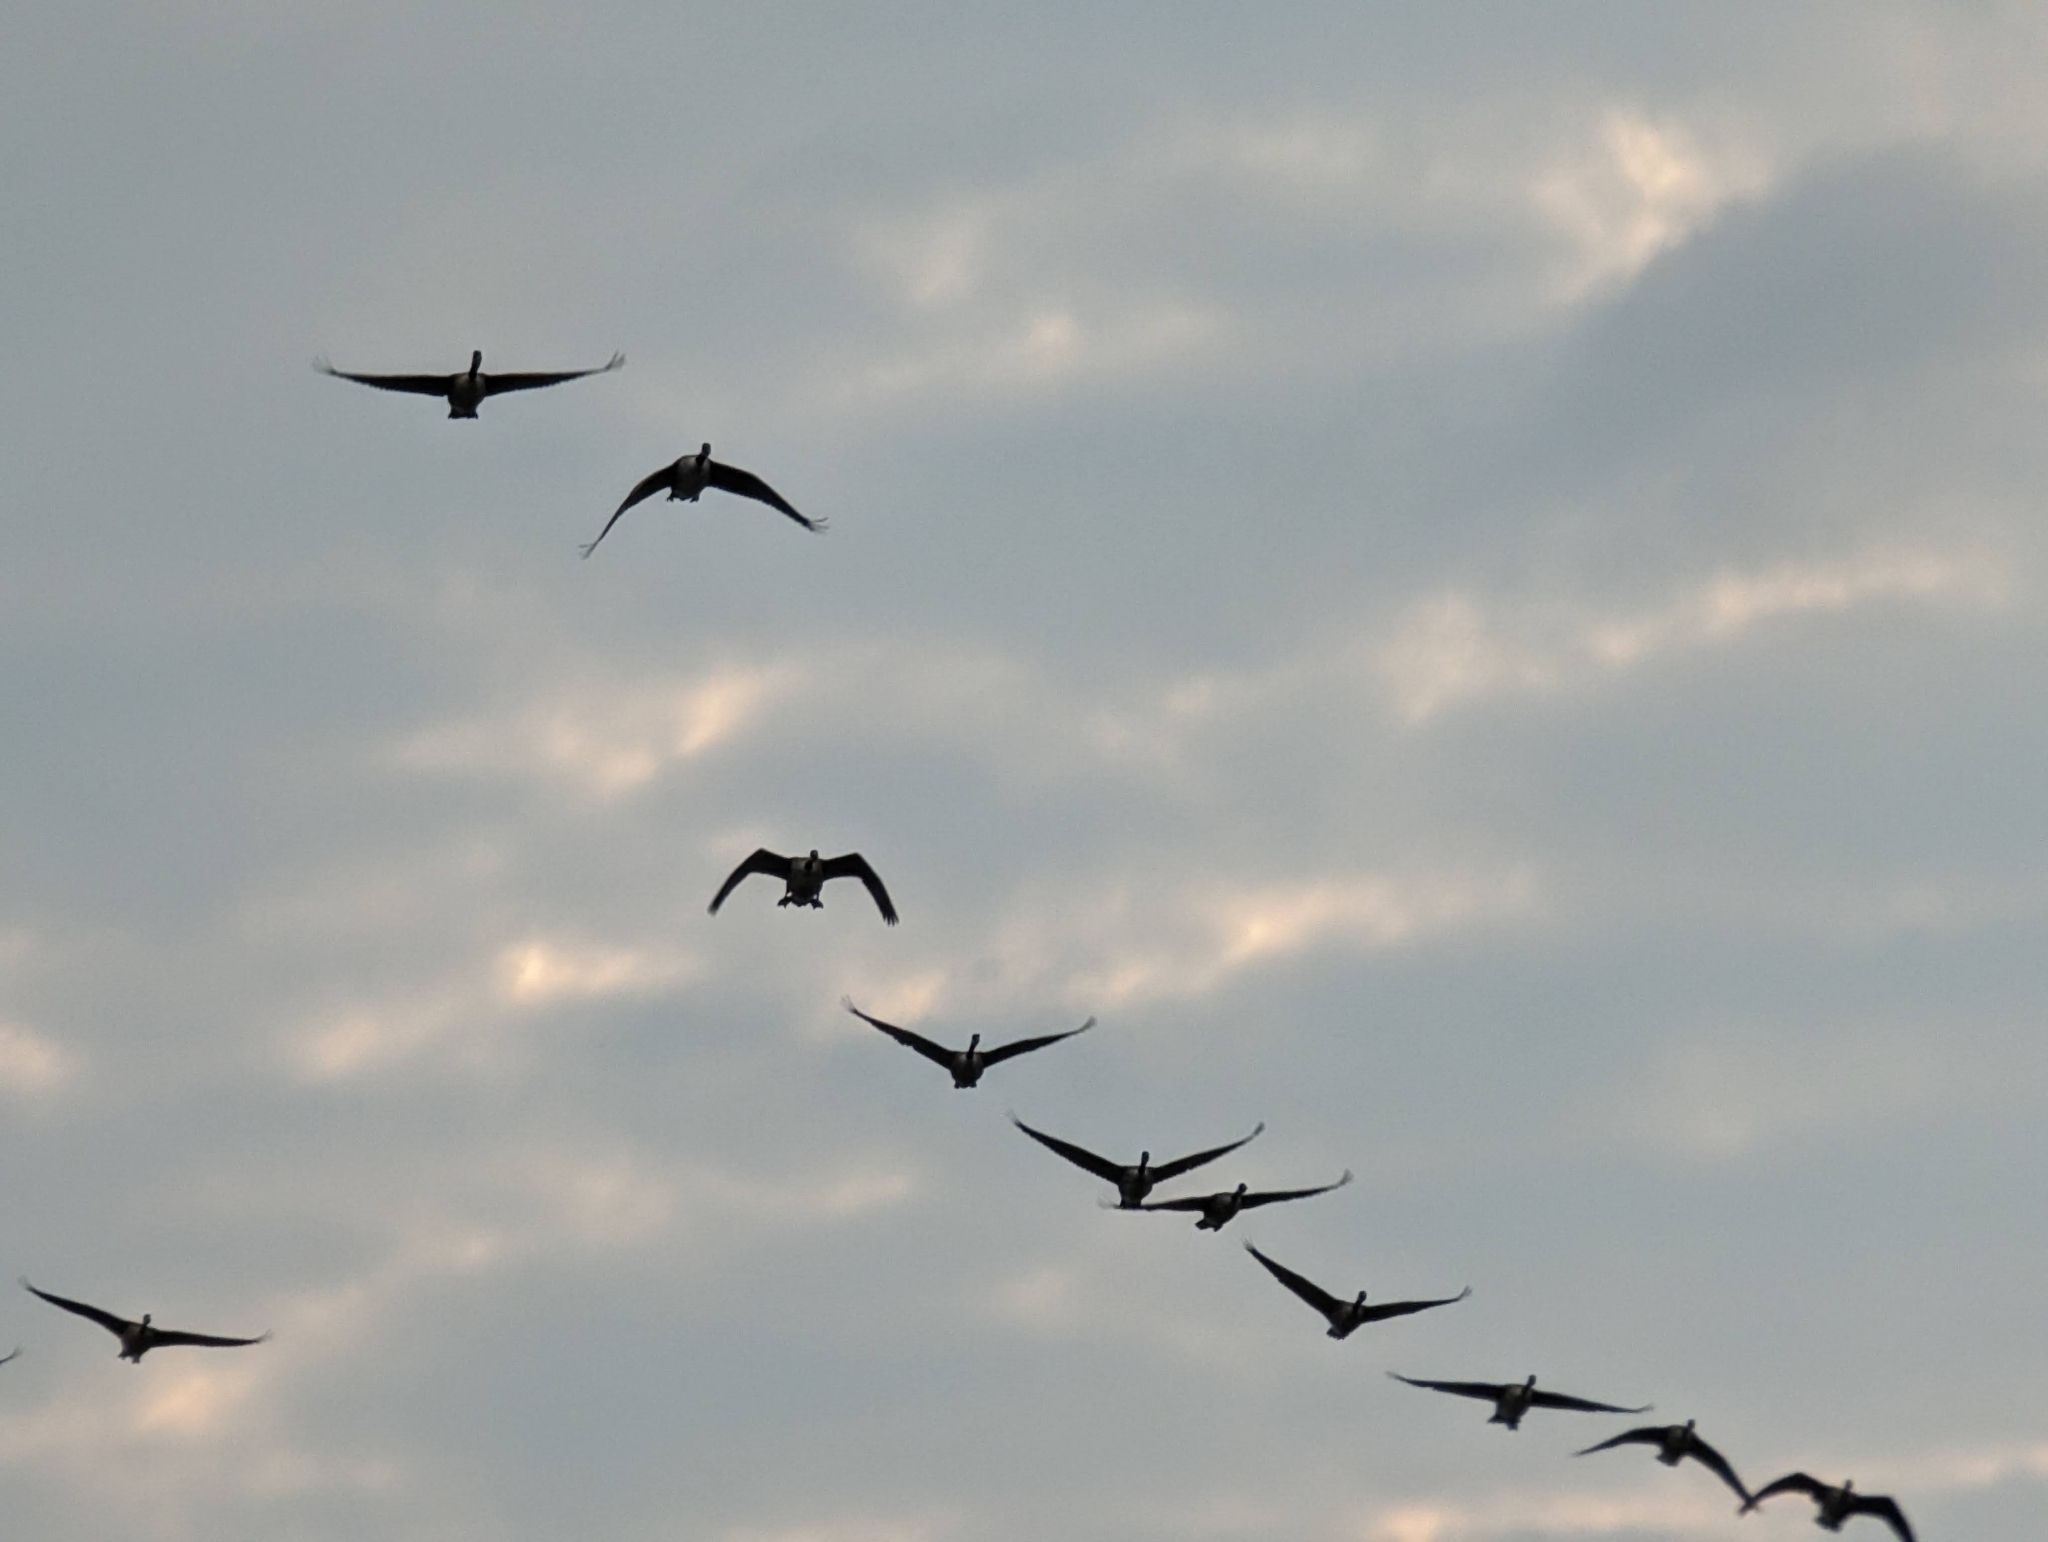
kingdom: Animalia
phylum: Chordata
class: Aves
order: Anseriformes
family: Anatidae
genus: Branta
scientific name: Branta canadensis
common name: Canada goose
